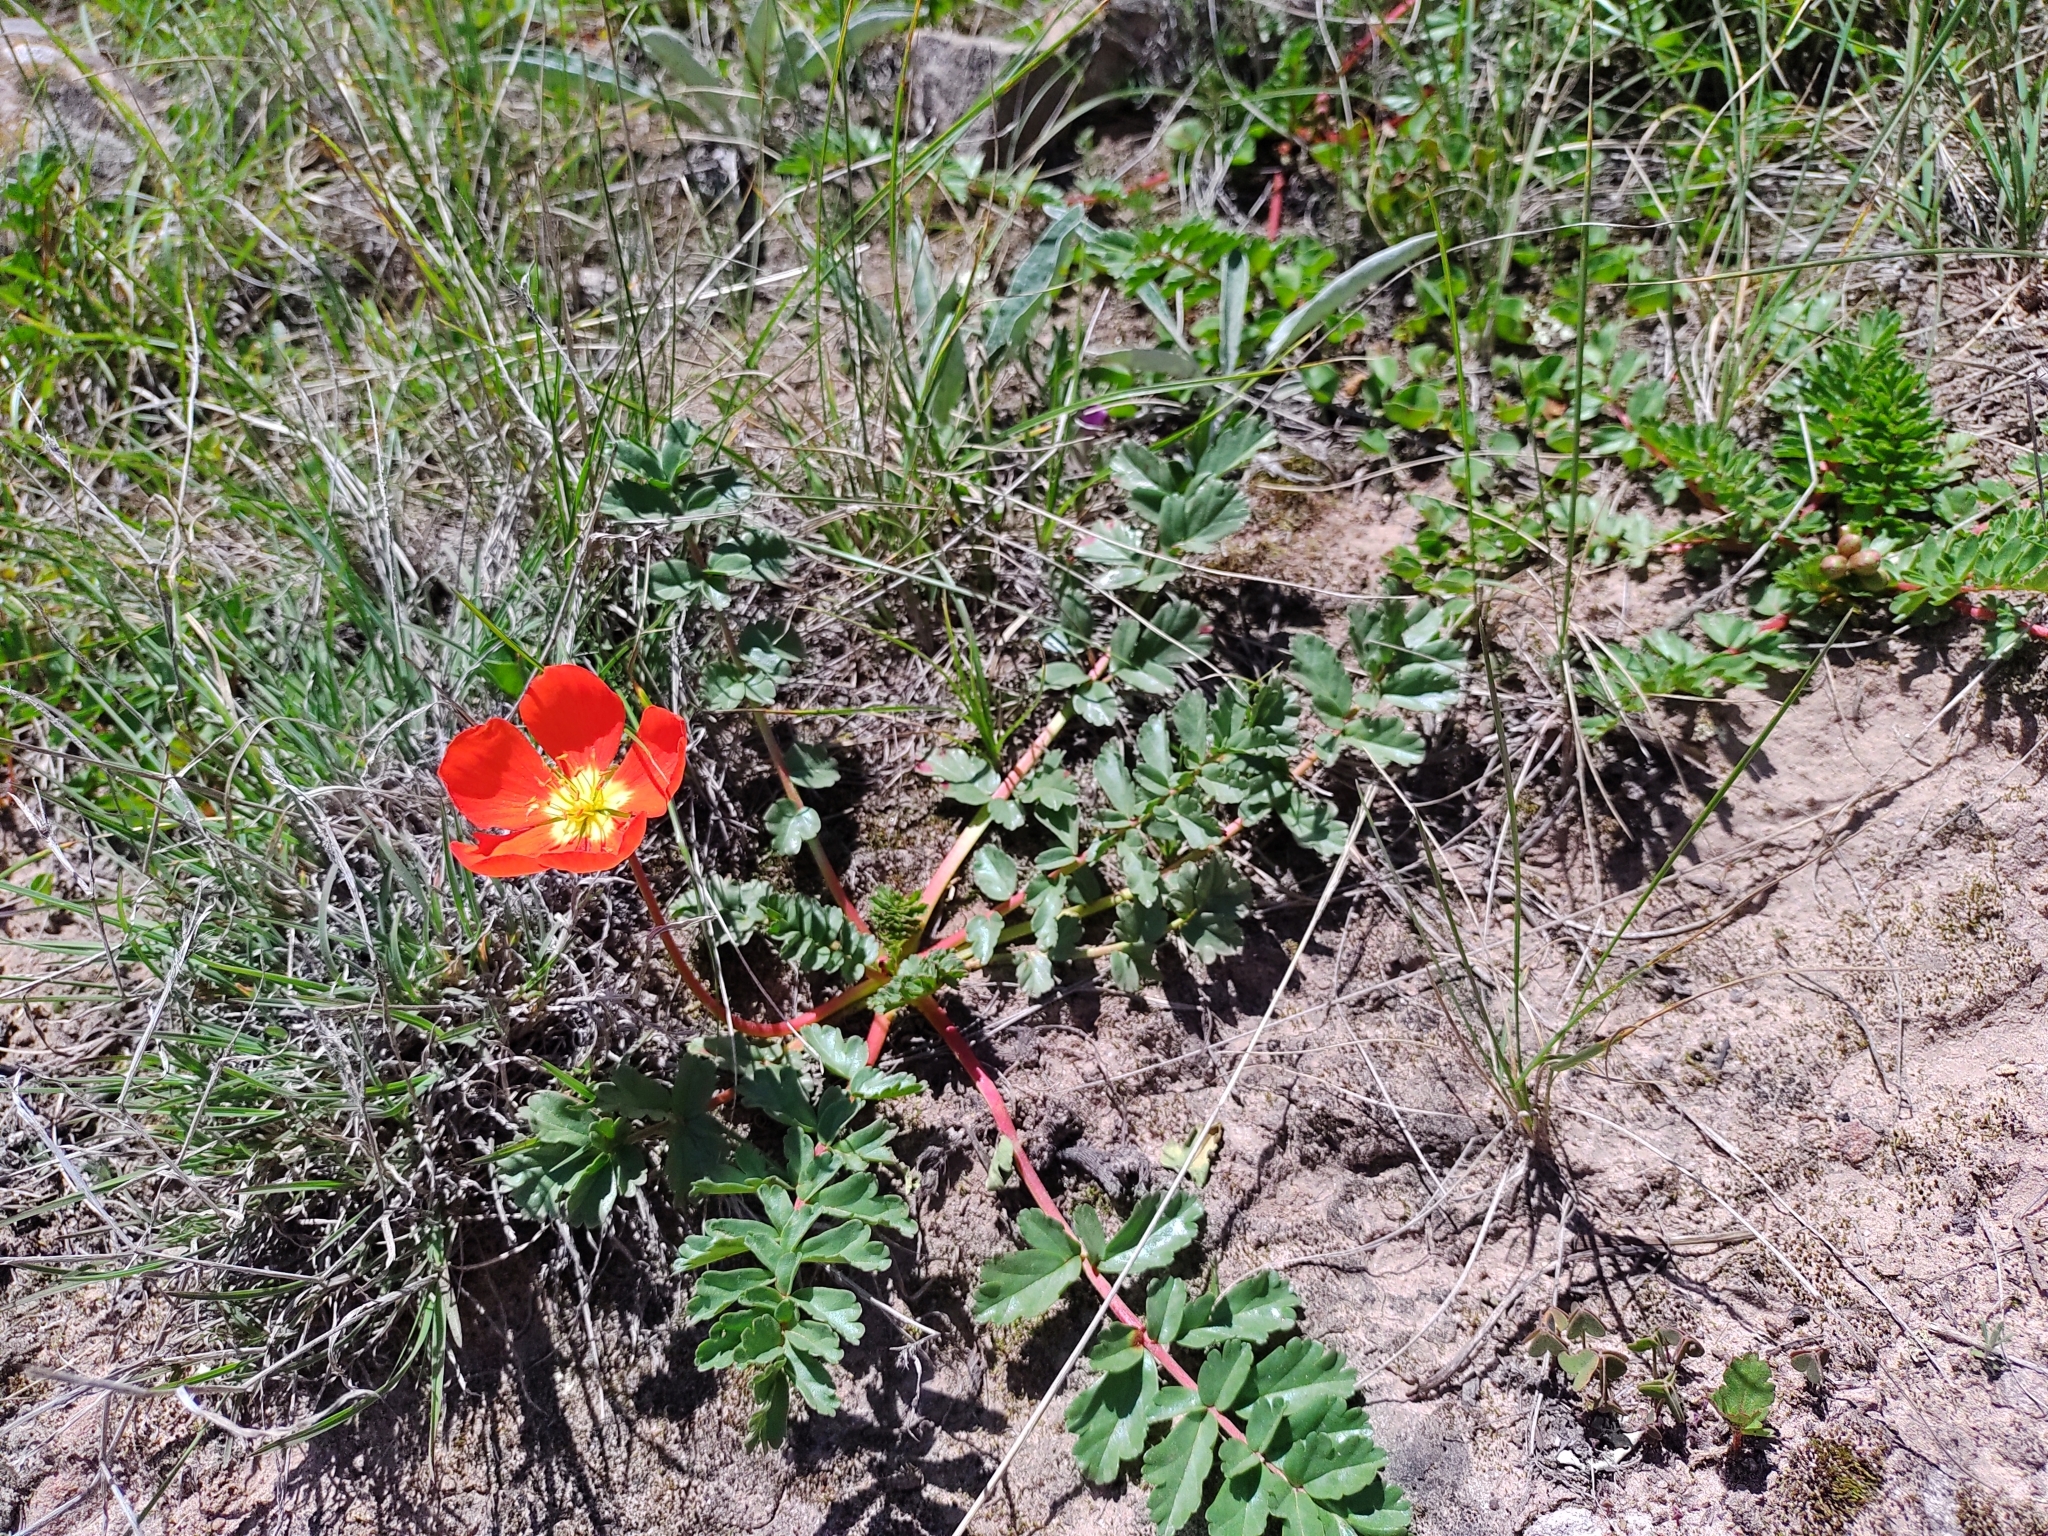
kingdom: Plantae
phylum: Tracheophyta
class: Magnoliopsida
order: Geraniales
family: Hypseocharitaceae
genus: Hypseocharis
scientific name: Hypseocharis pimpinellifolia
